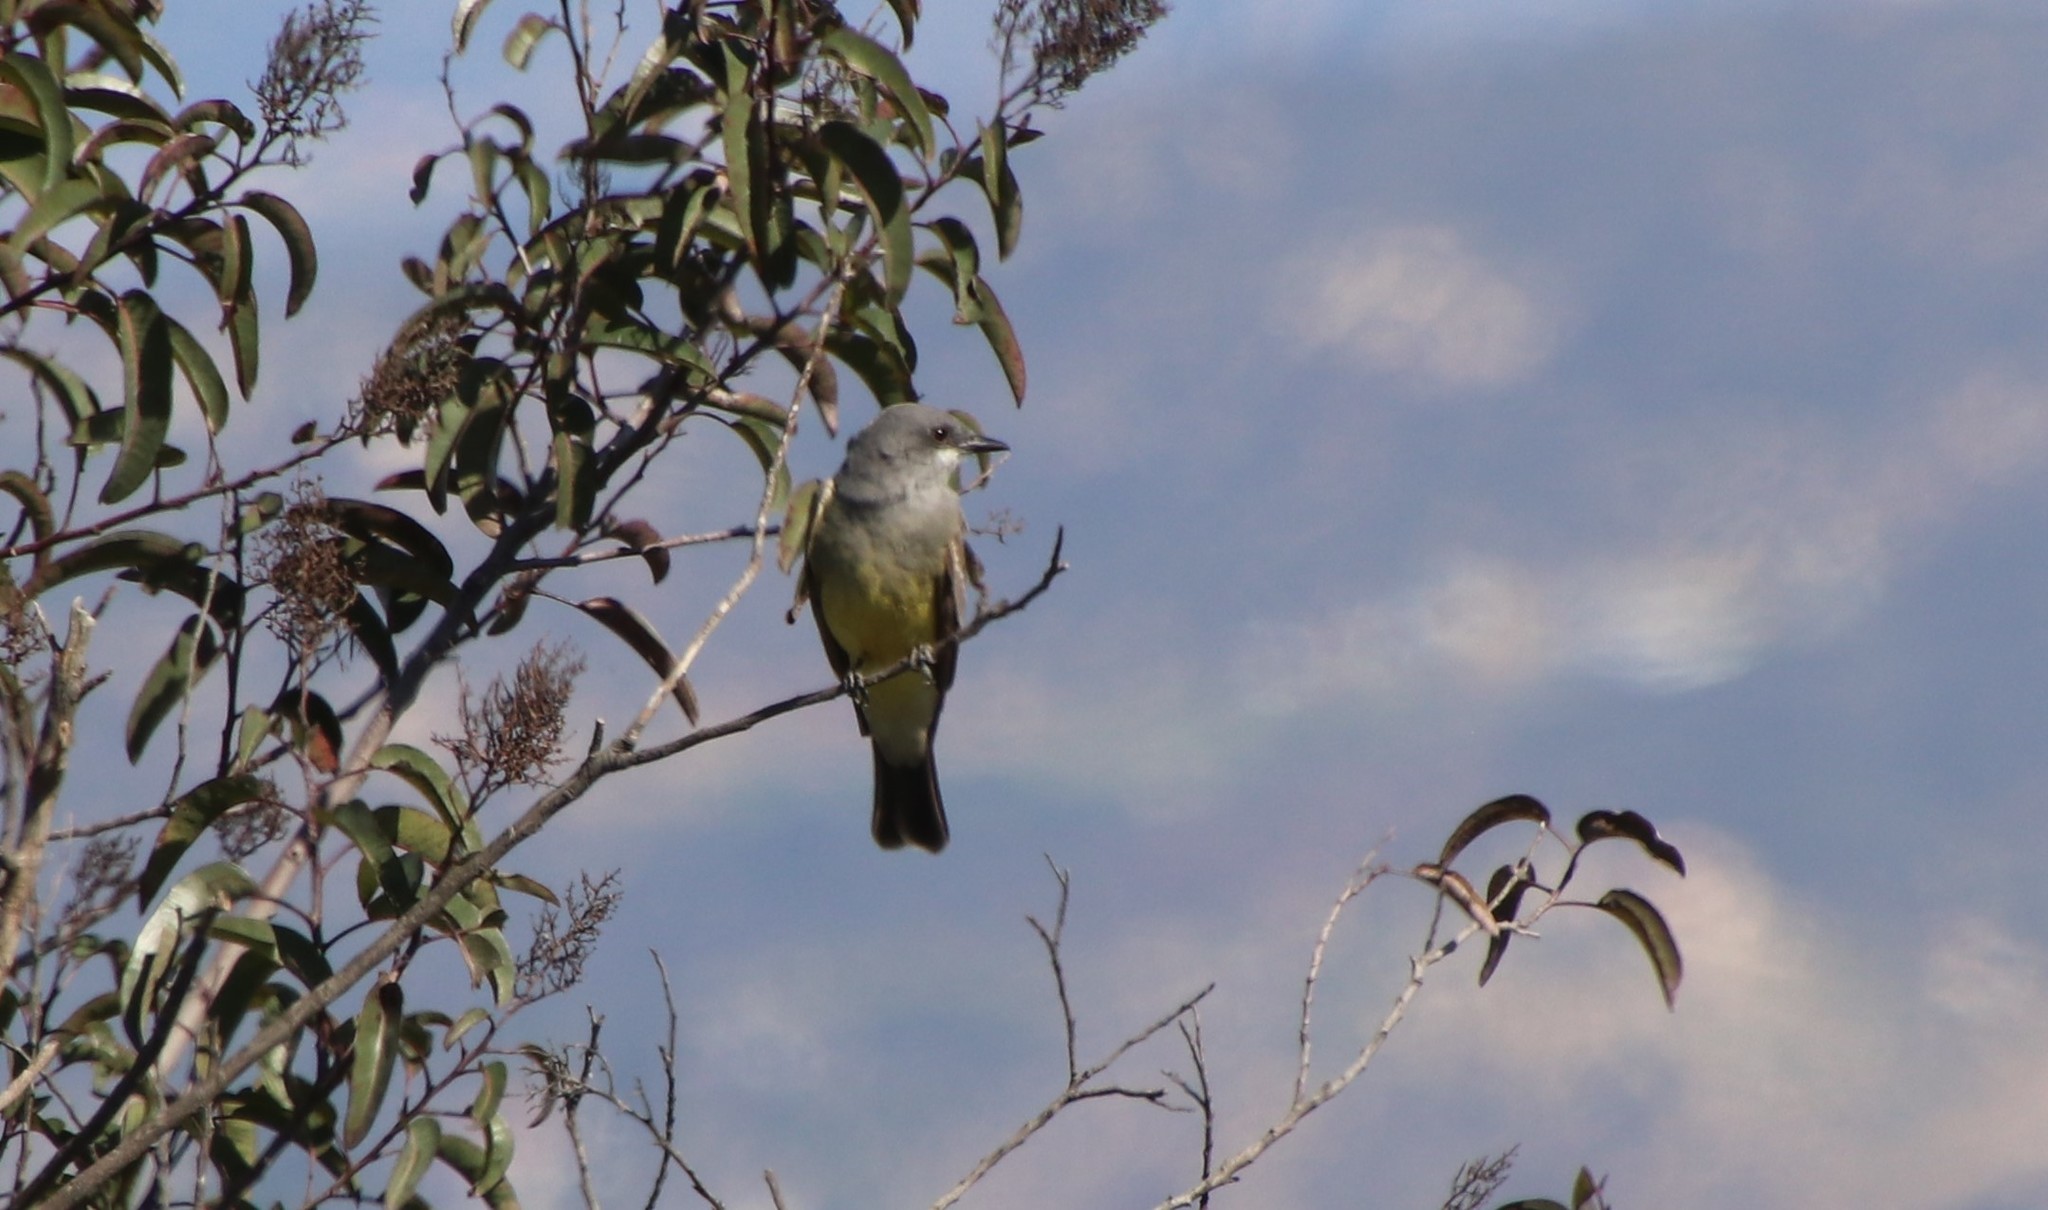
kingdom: Animalia
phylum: Chordata
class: Aves
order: Passeriformes
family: Tyrannidae
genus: Tyrannus
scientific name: Tyrannus vociferans
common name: Cassin's kingbird
